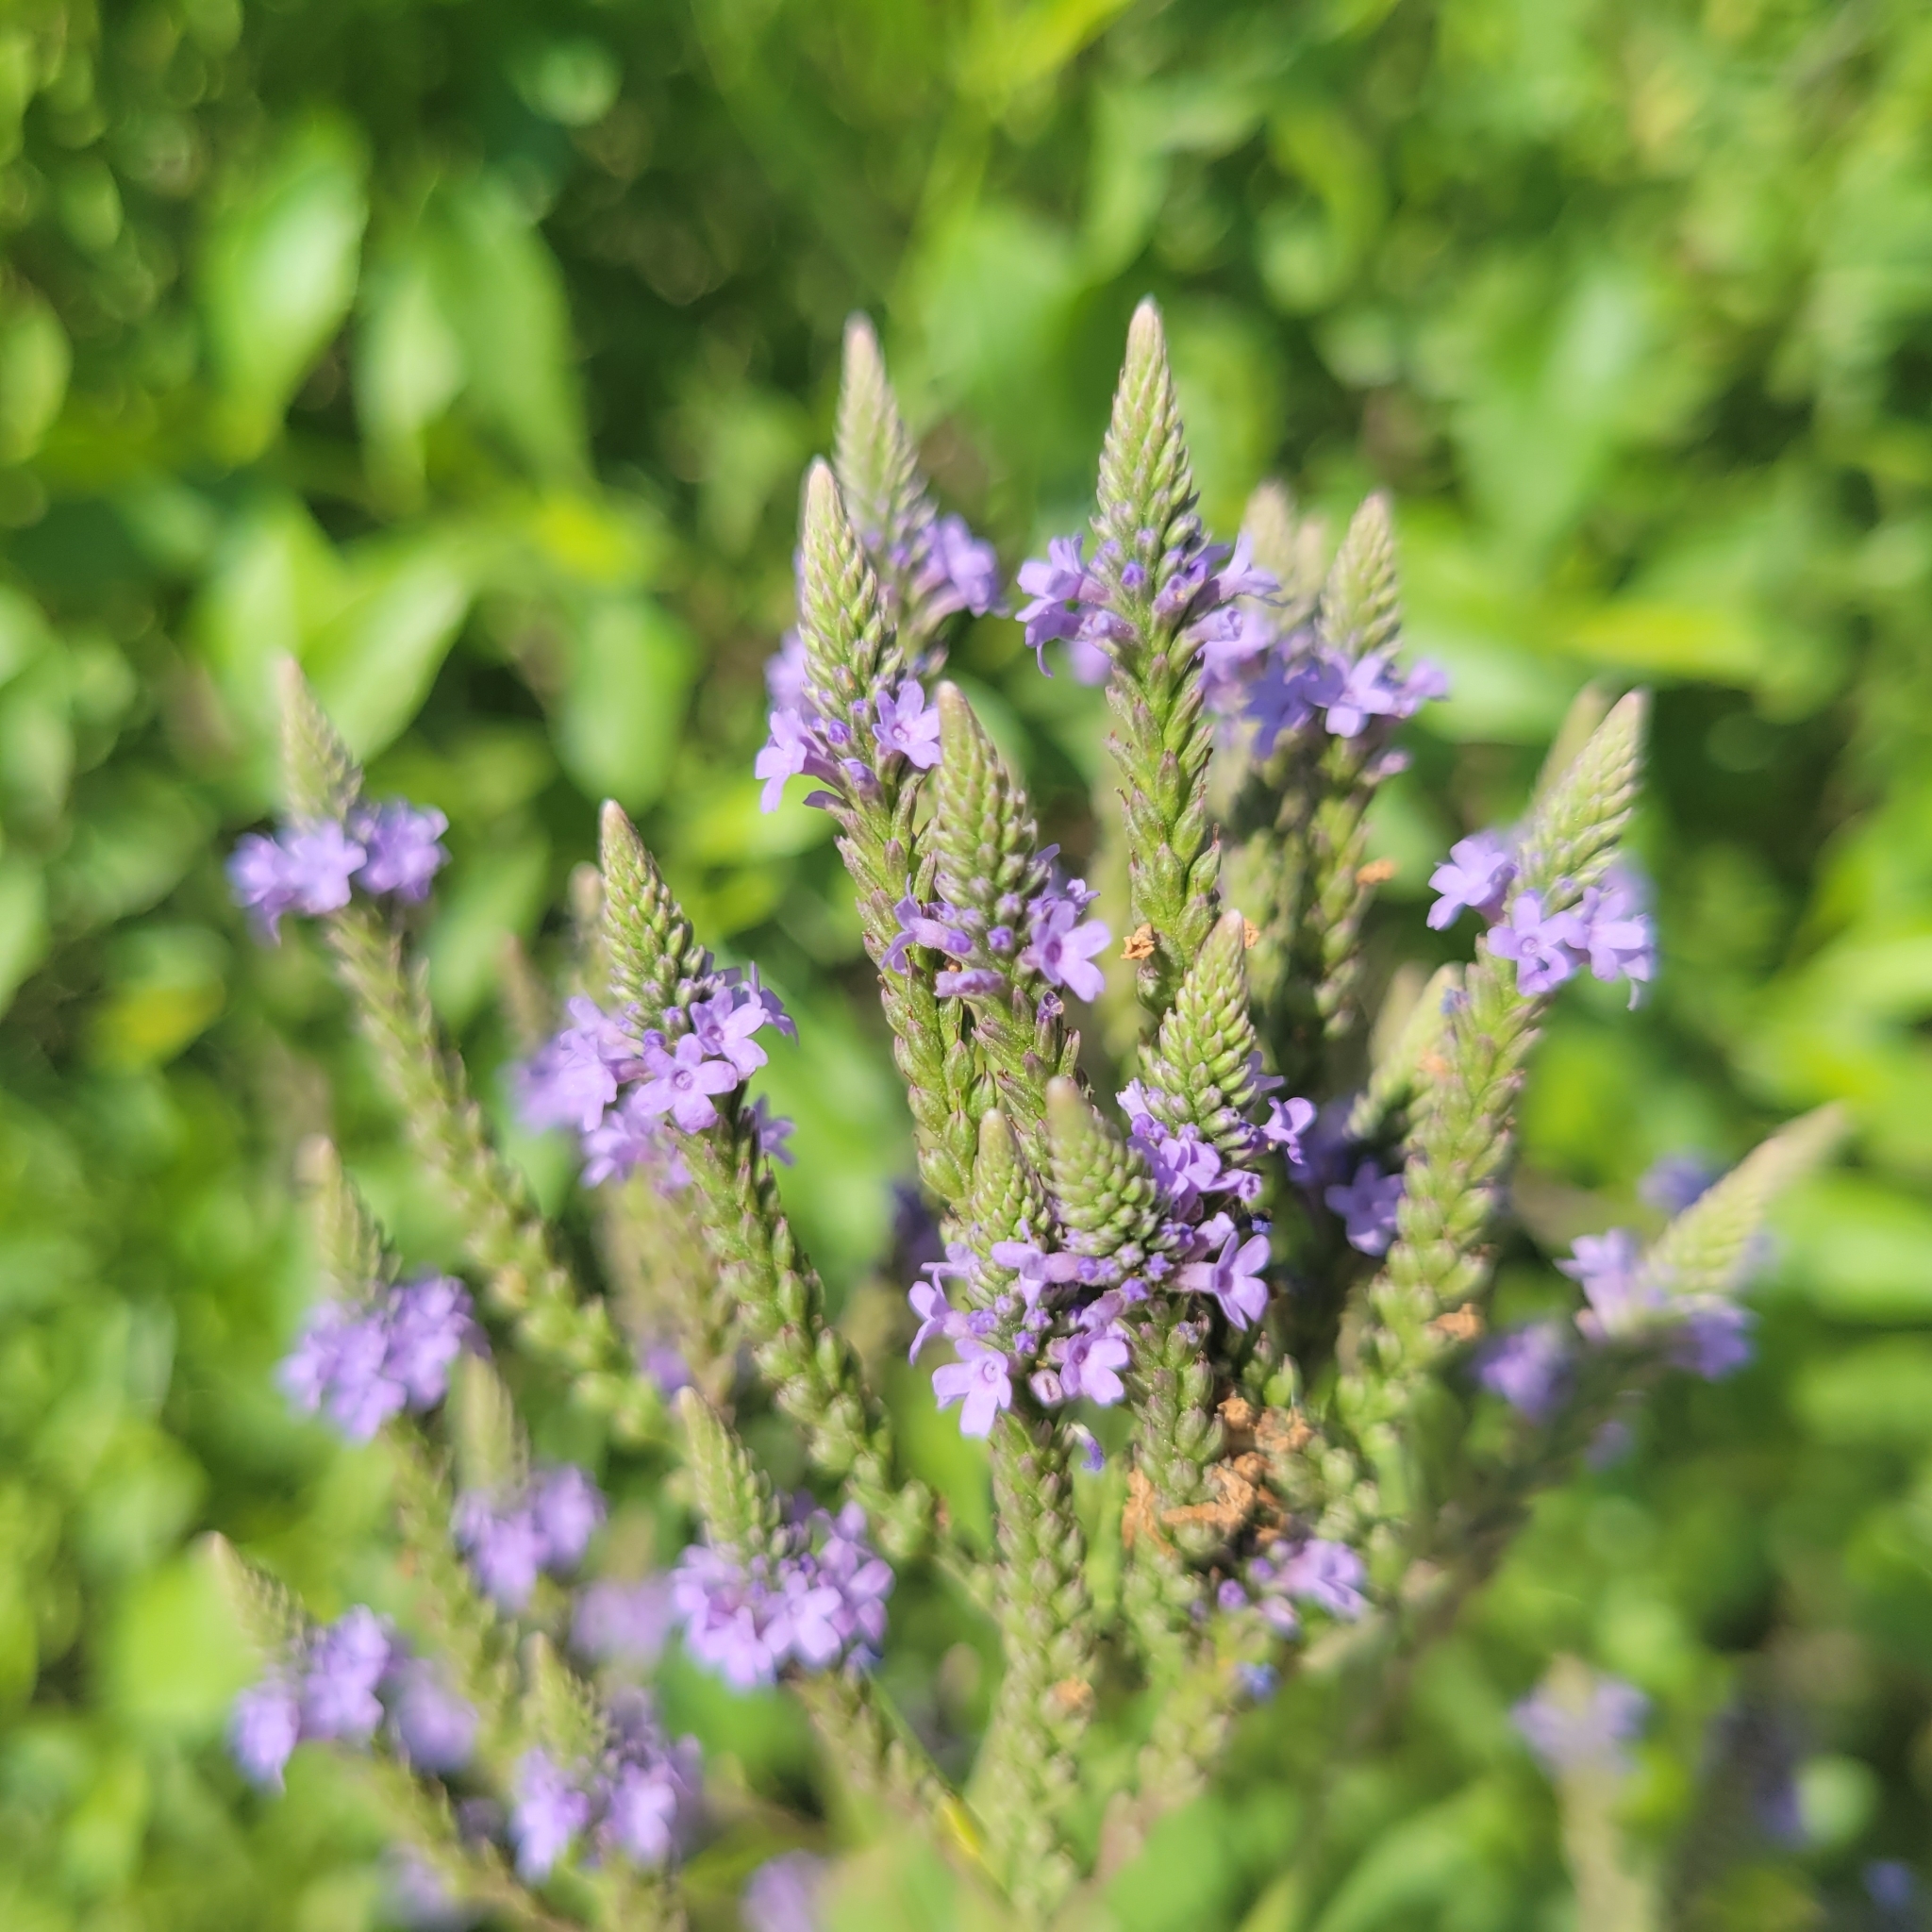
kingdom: Plantae
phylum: Tracheophyta
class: Magnoliopsida
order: Lamiales
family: Verbenaceae
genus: Verbena
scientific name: Verbena hastata
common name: American blue vervain
